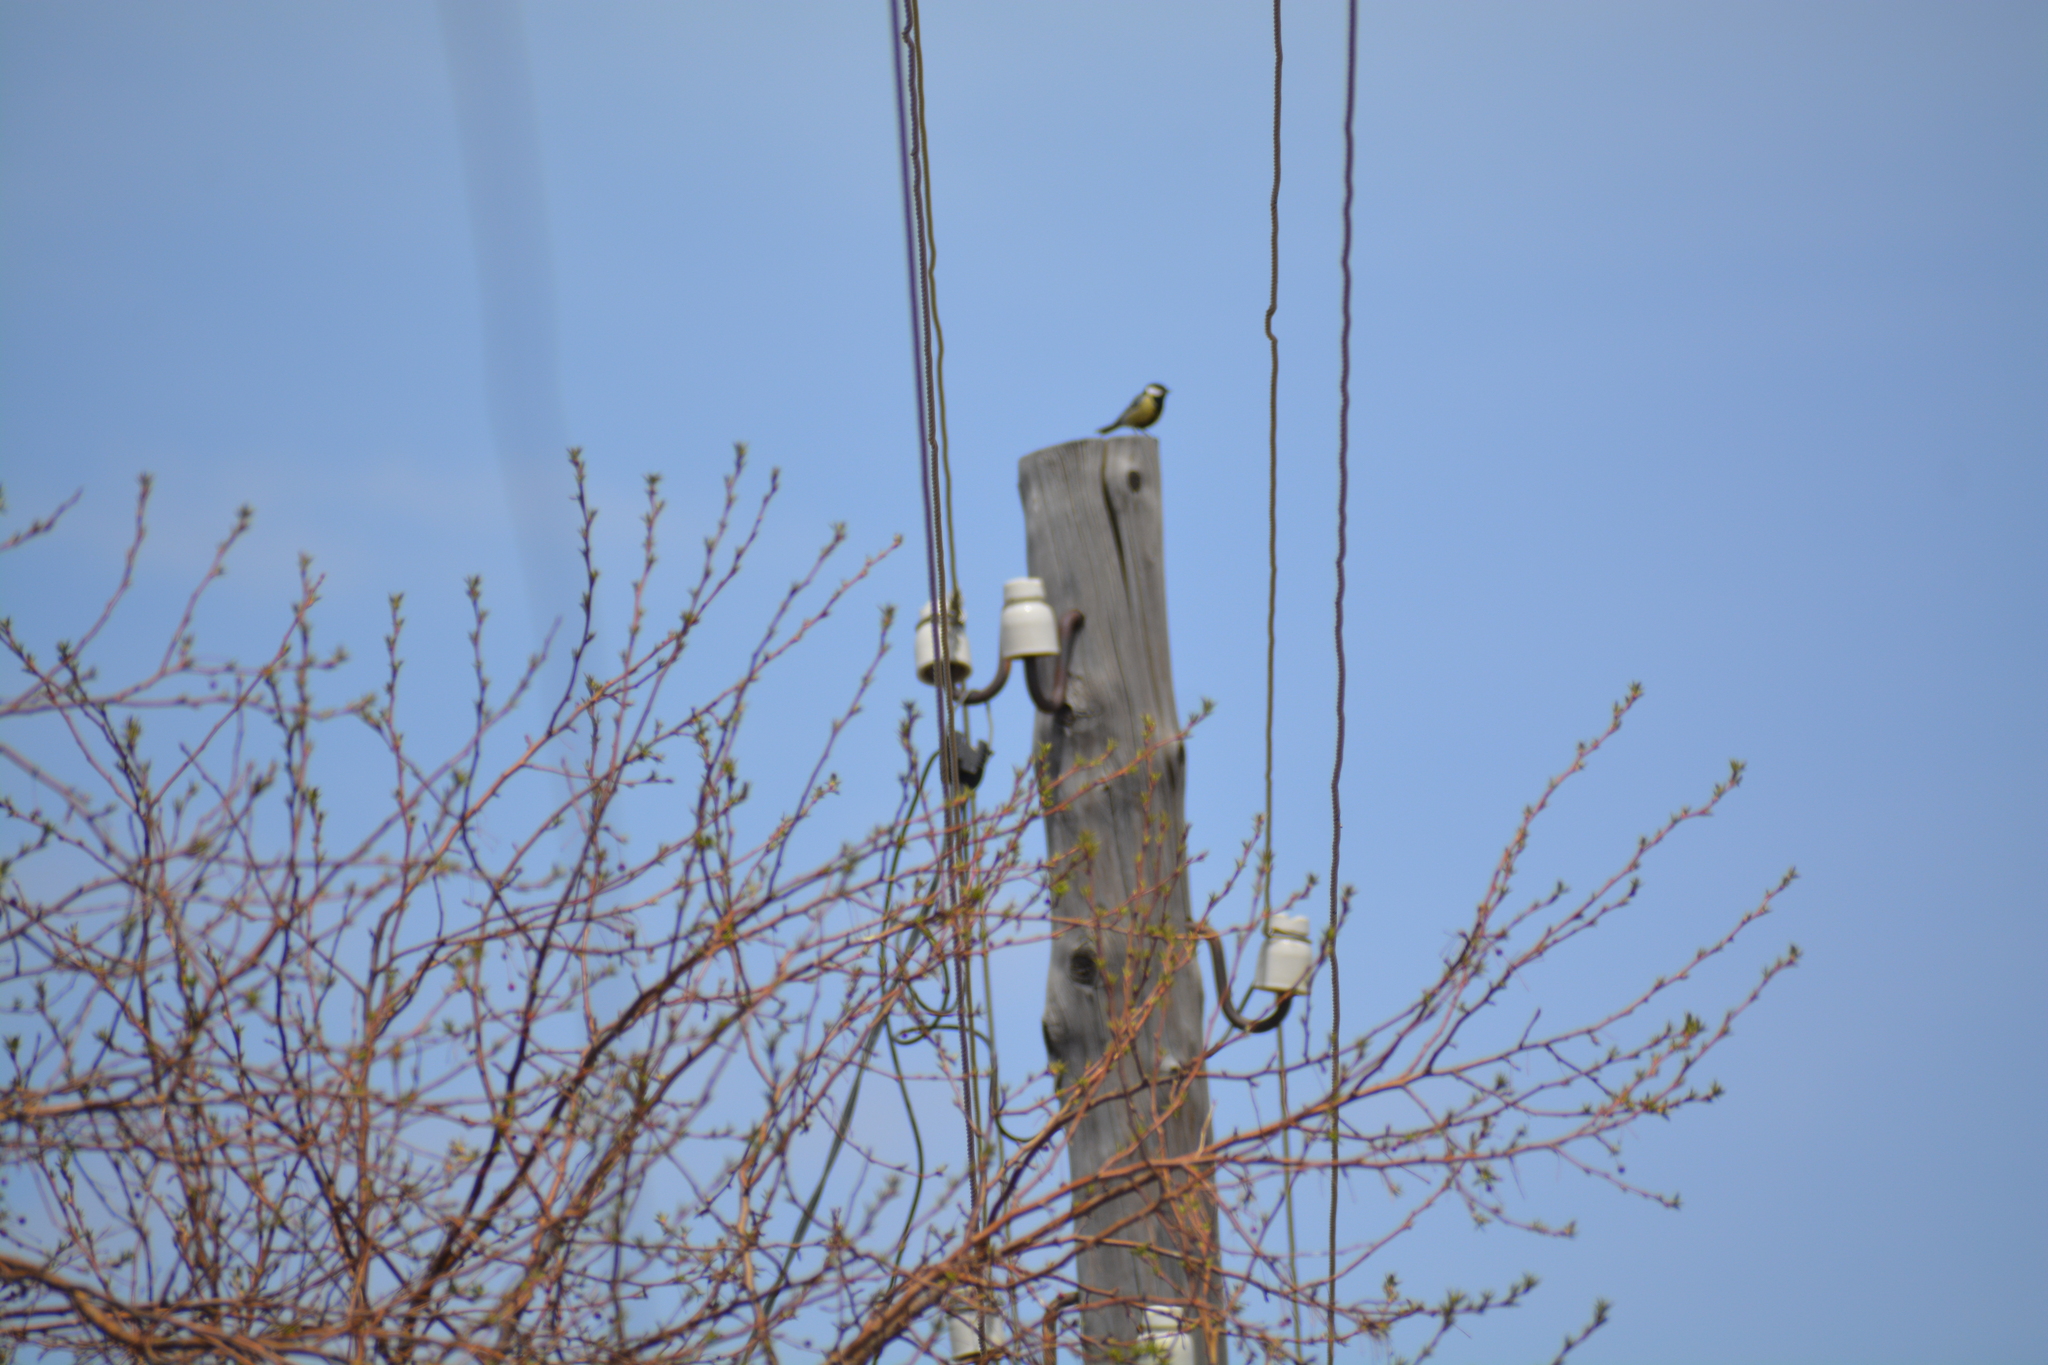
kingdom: Animalia
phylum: Chordata
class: Aves
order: Passeriformes
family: Paridae
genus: Parus
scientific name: Parus major
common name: Great tit
